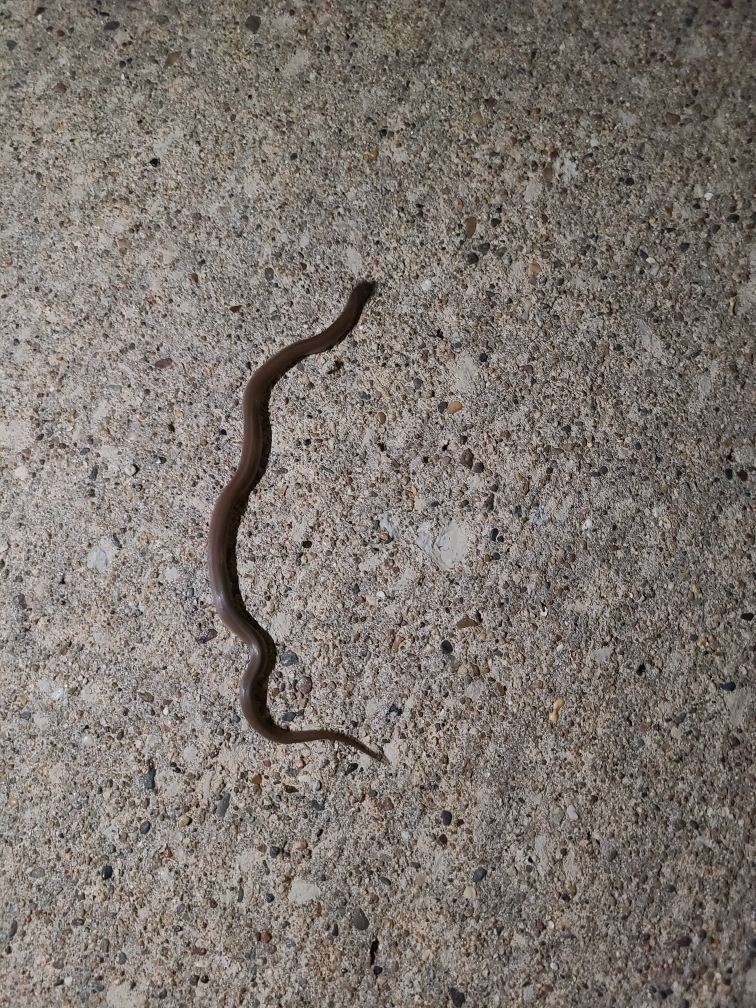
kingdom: Animalia
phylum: Chordata
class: Squamata
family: Colubridae
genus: Virginia
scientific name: Virginia valeriae
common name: Smooth earth snake
